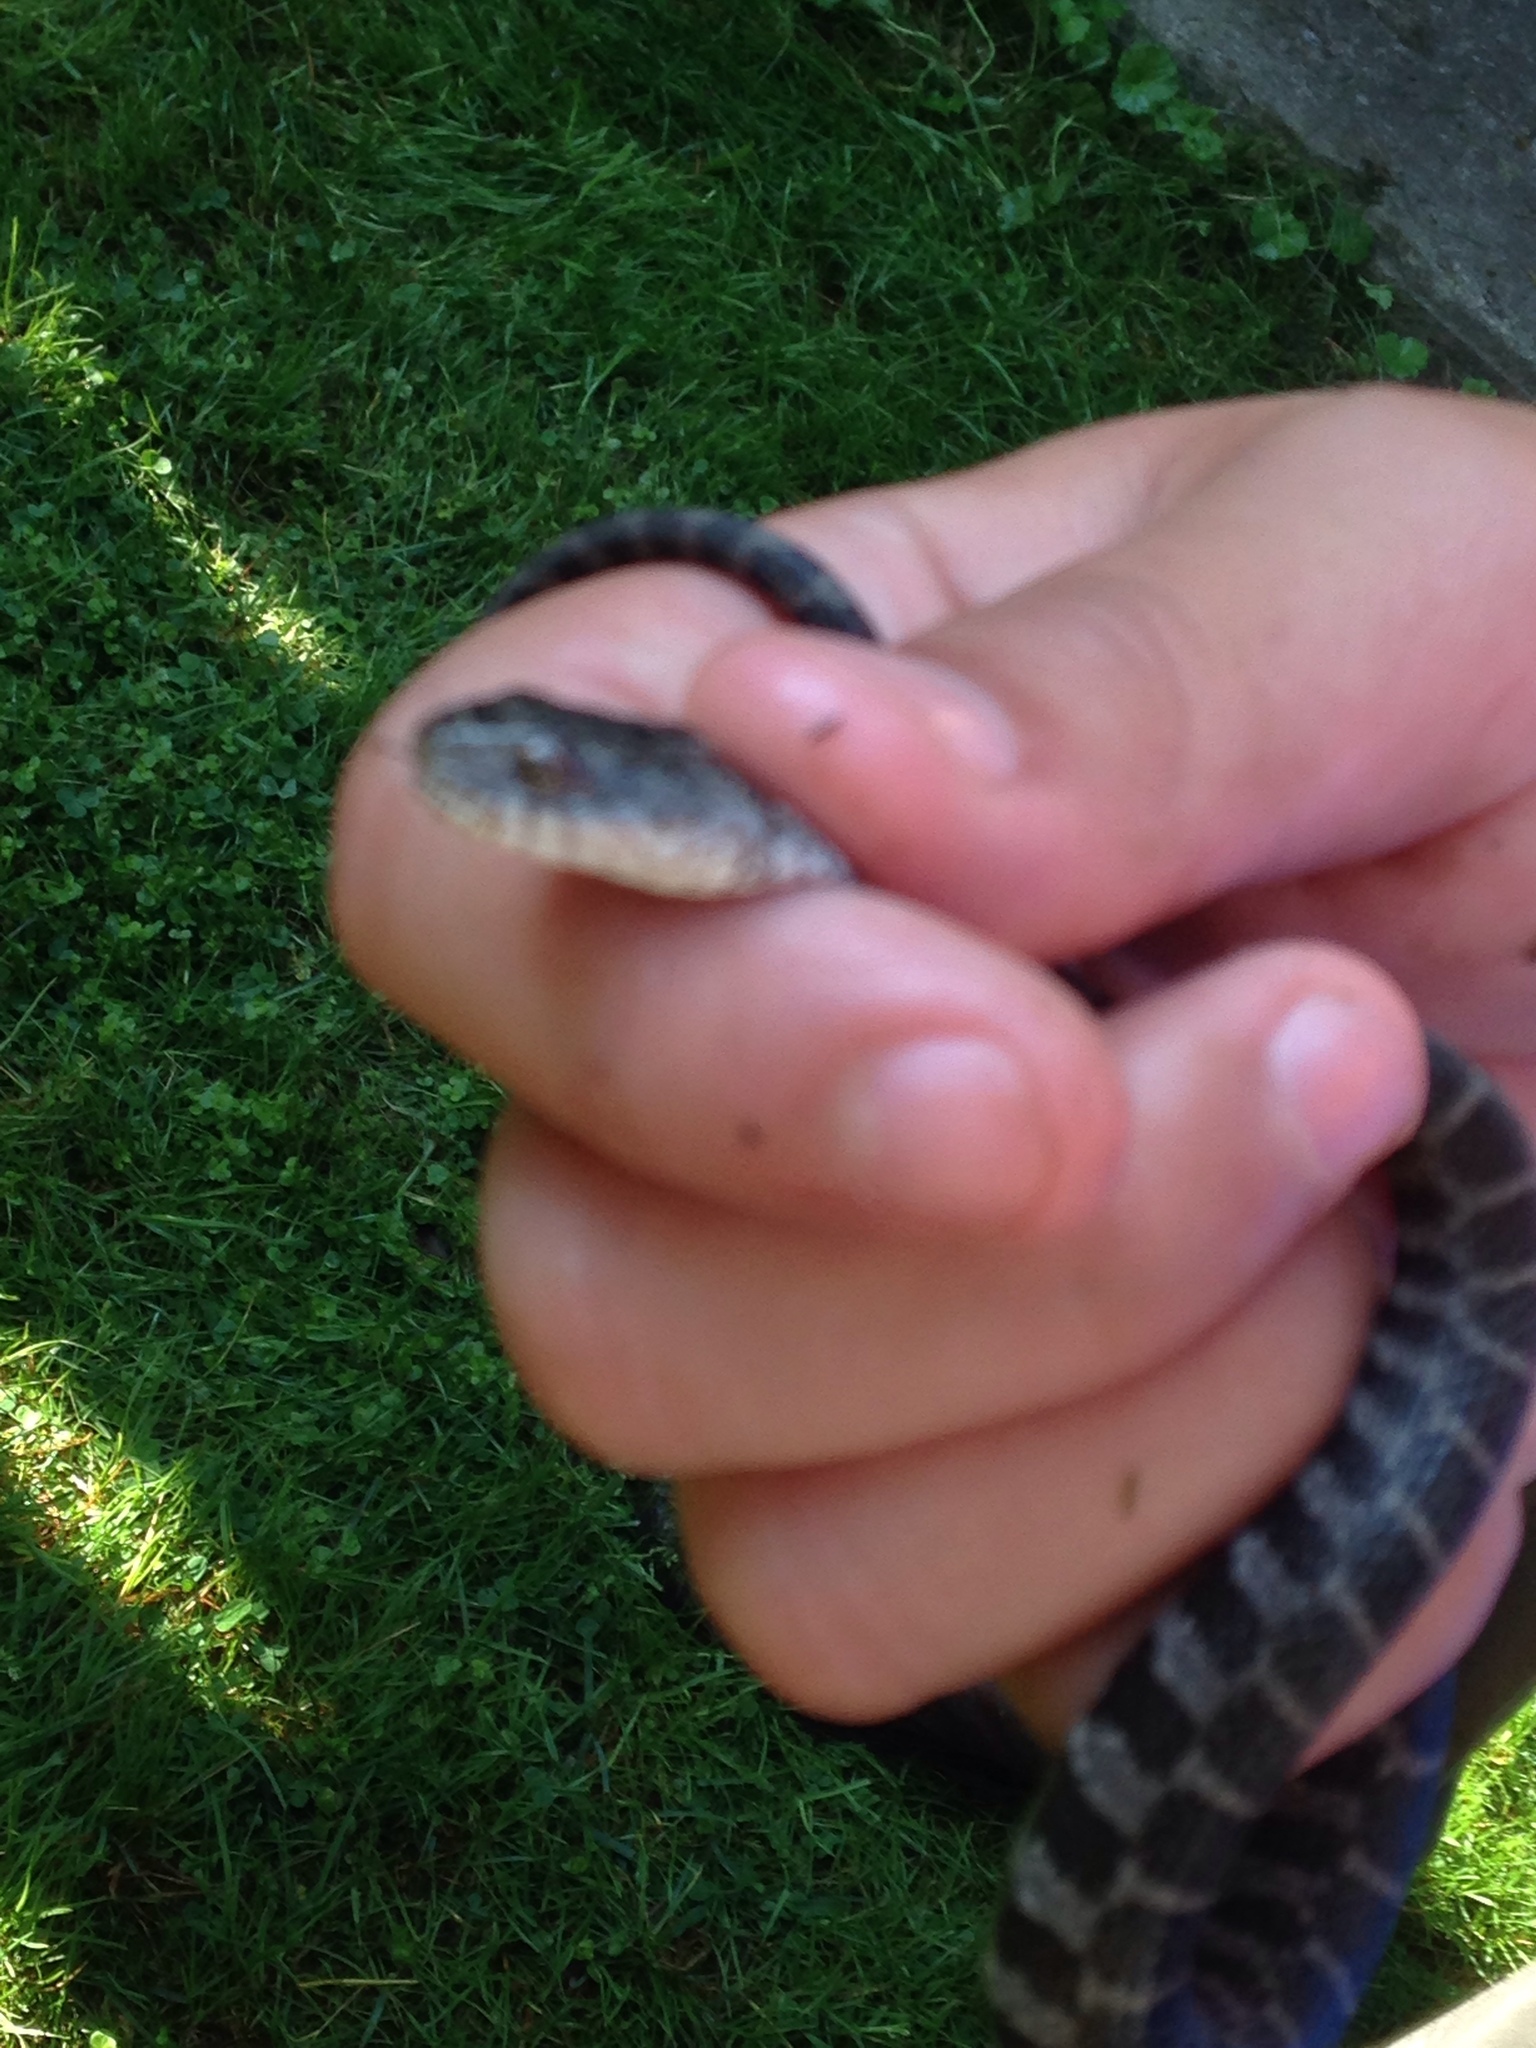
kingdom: Animalia
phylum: Chordata
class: Squamata
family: Colubridae
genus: Nerodia
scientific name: Nerodia sipedon
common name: Northern water snake
